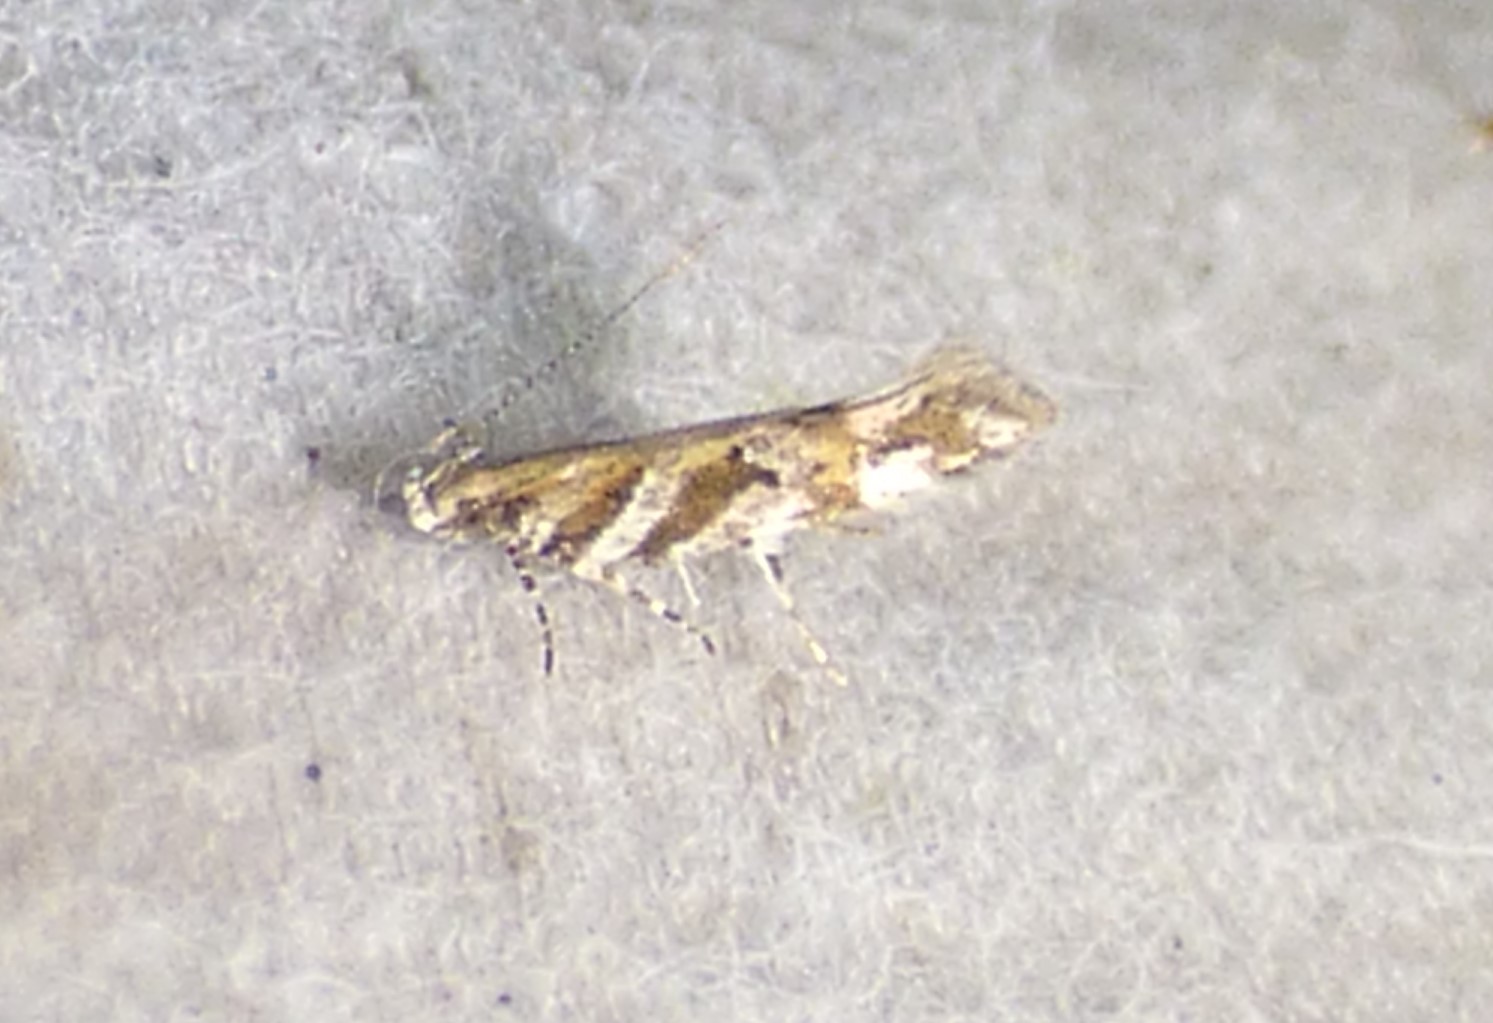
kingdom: Animalia
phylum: Arthropoda
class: Insecta
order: Lepidoptera
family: Gelechiidae
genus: Aristotelia
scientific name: Aristotelia roseosuffusella
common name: Pink-washed aristotelia moth
